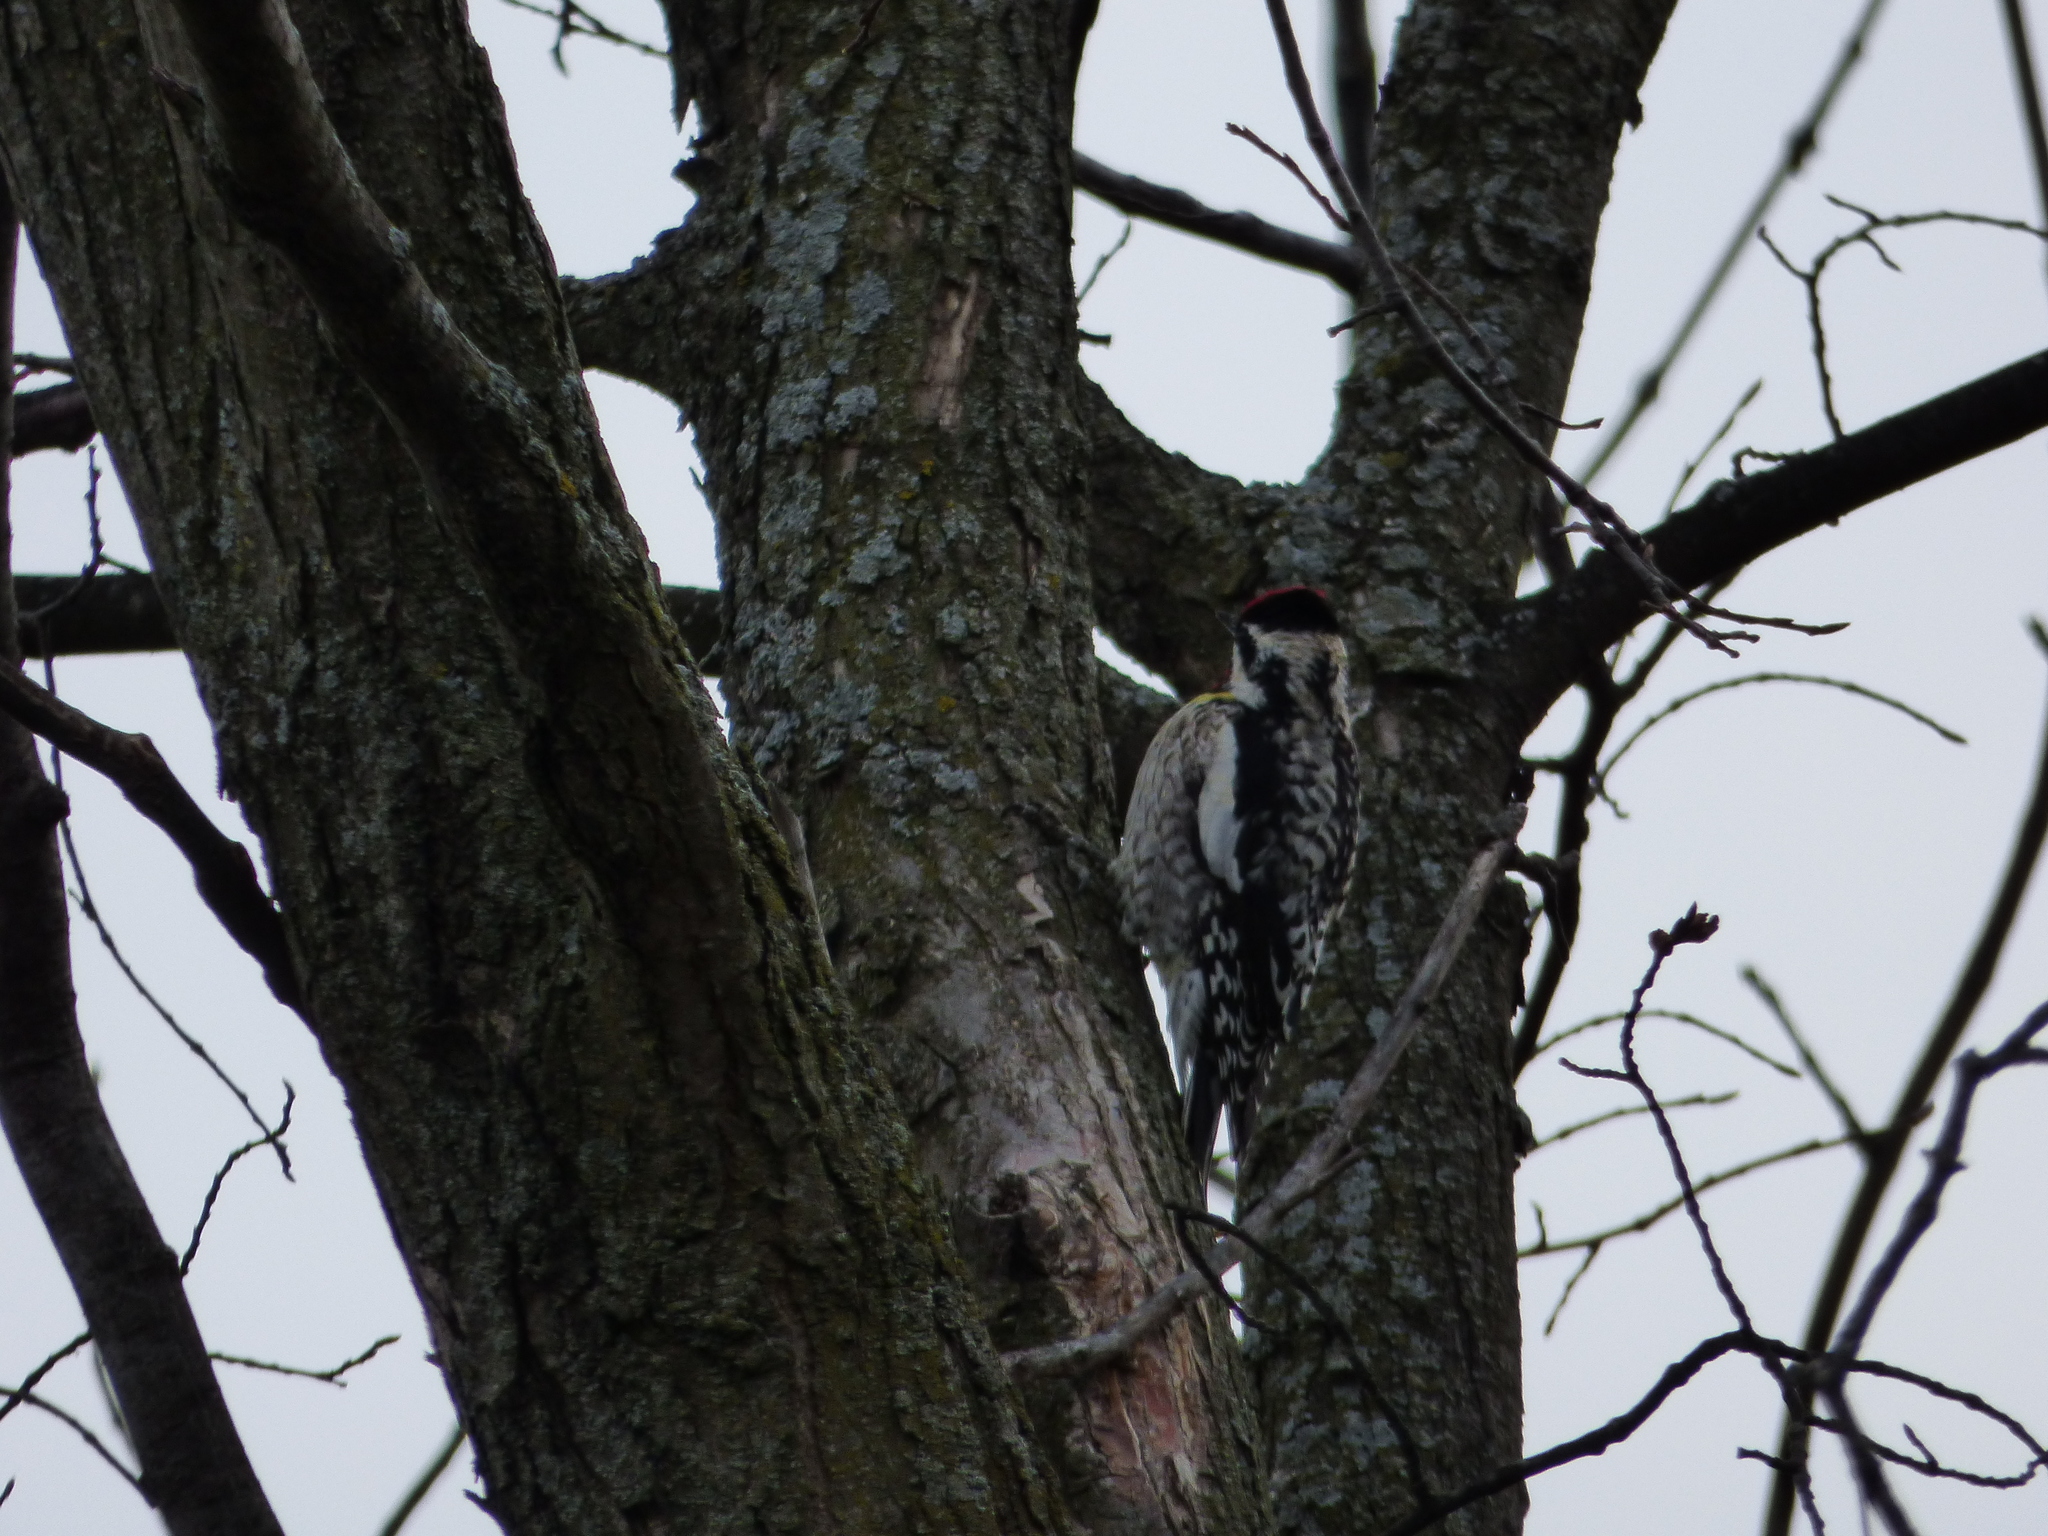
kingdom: Animalia
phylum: Chordata
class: Aves
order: Piciformes
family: Picidae
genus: Sphyrapicus
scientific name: Sphyrapicus varius
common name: Yellow-bellied sapsucker
